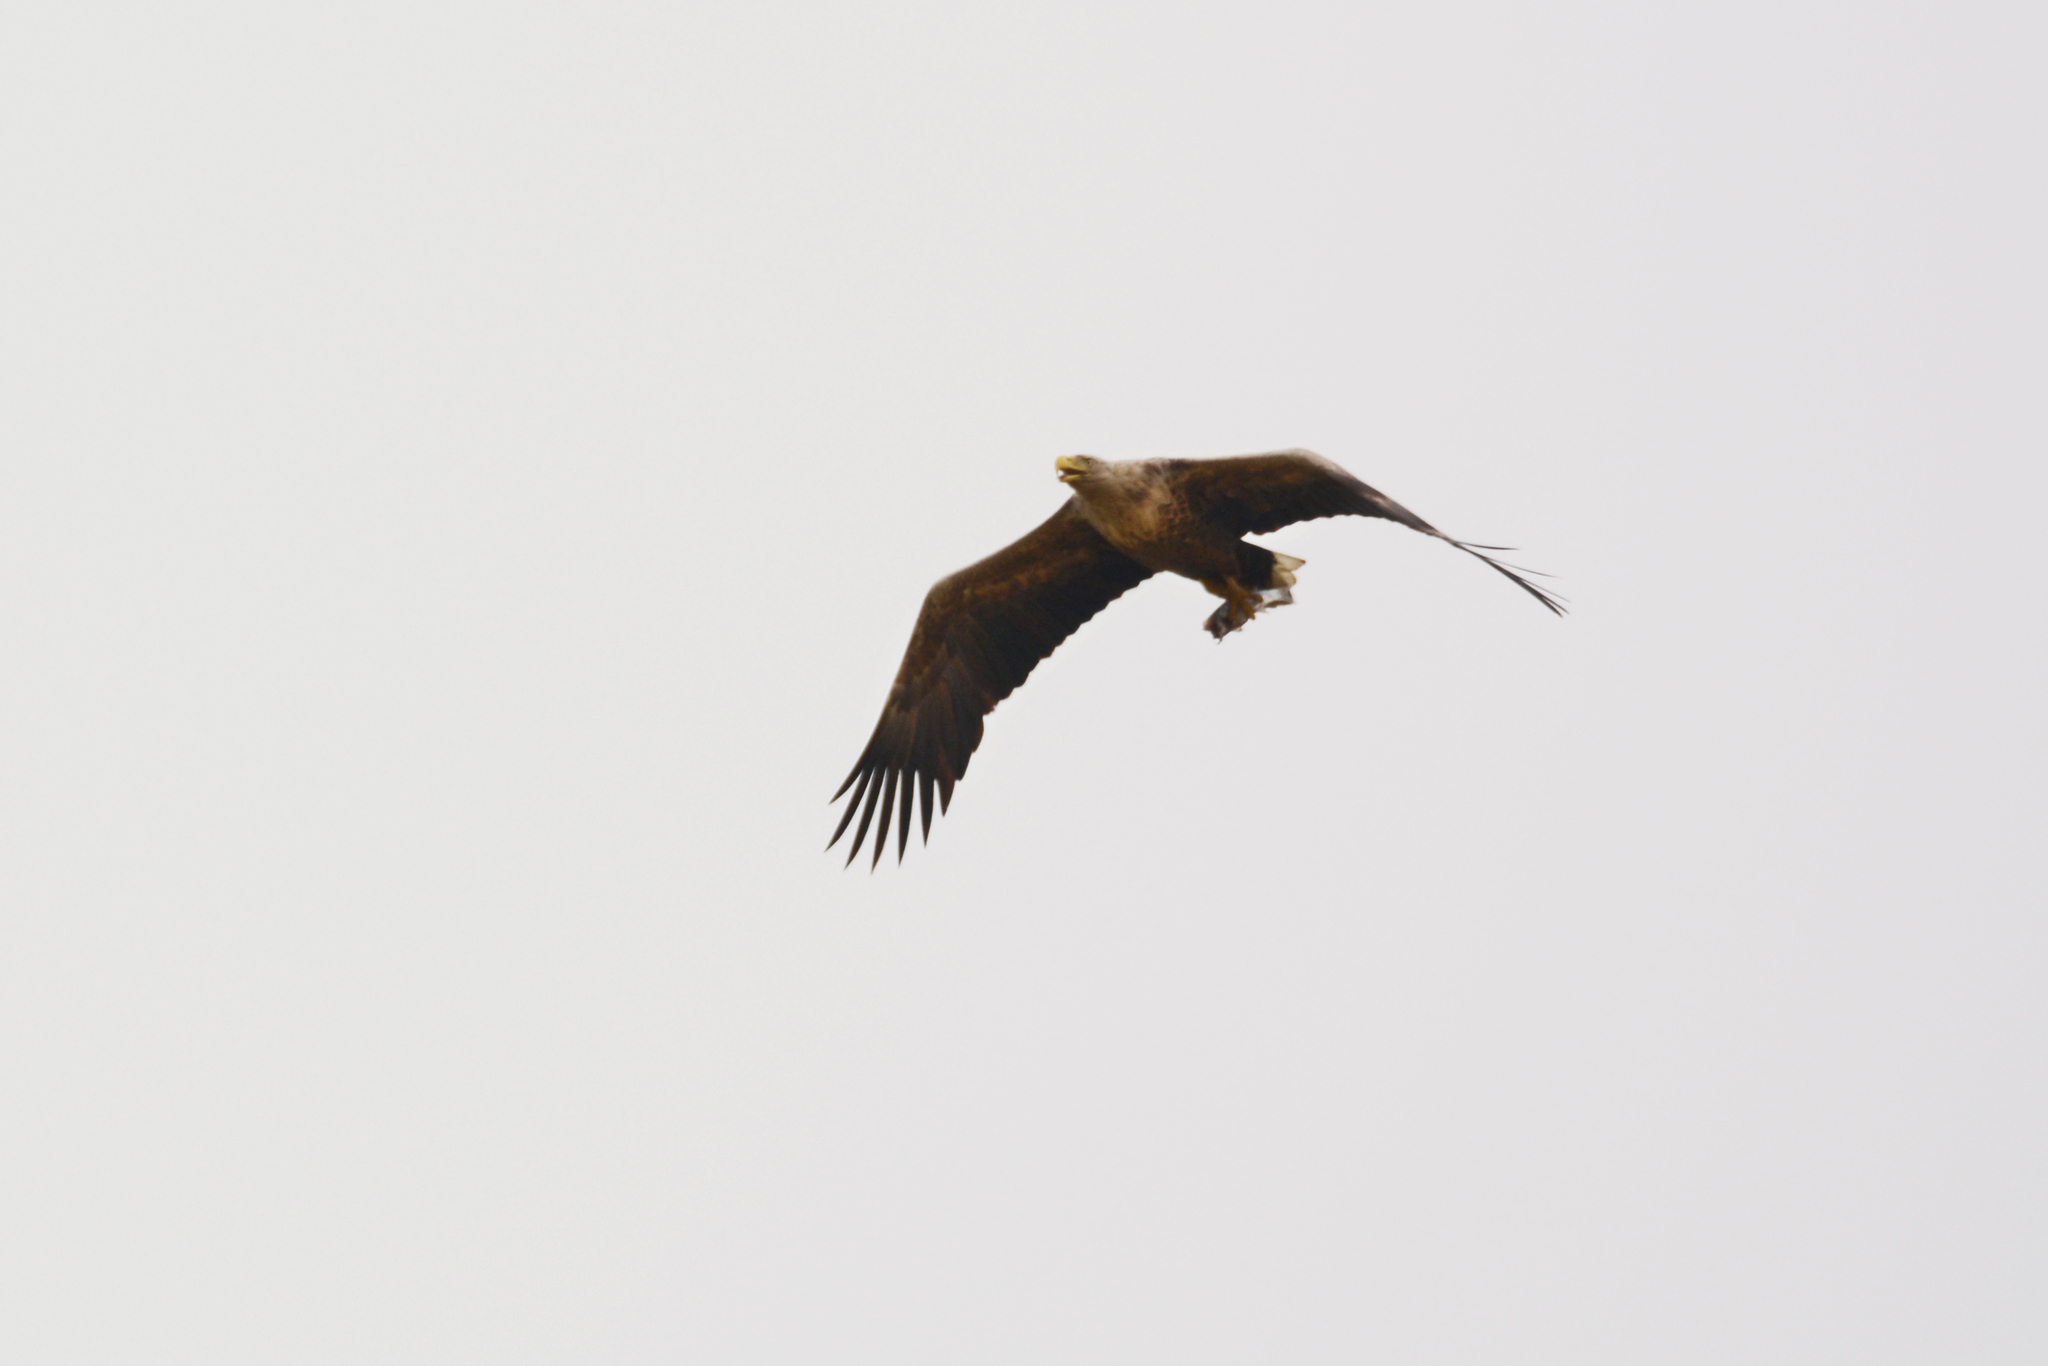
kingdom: Animalia
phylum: Chordata
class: Aves
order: Accipitriformes
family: Accipitridae
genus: Haliaeetus
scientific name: Haliaeetus albicilla
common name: White-tailed eagle
